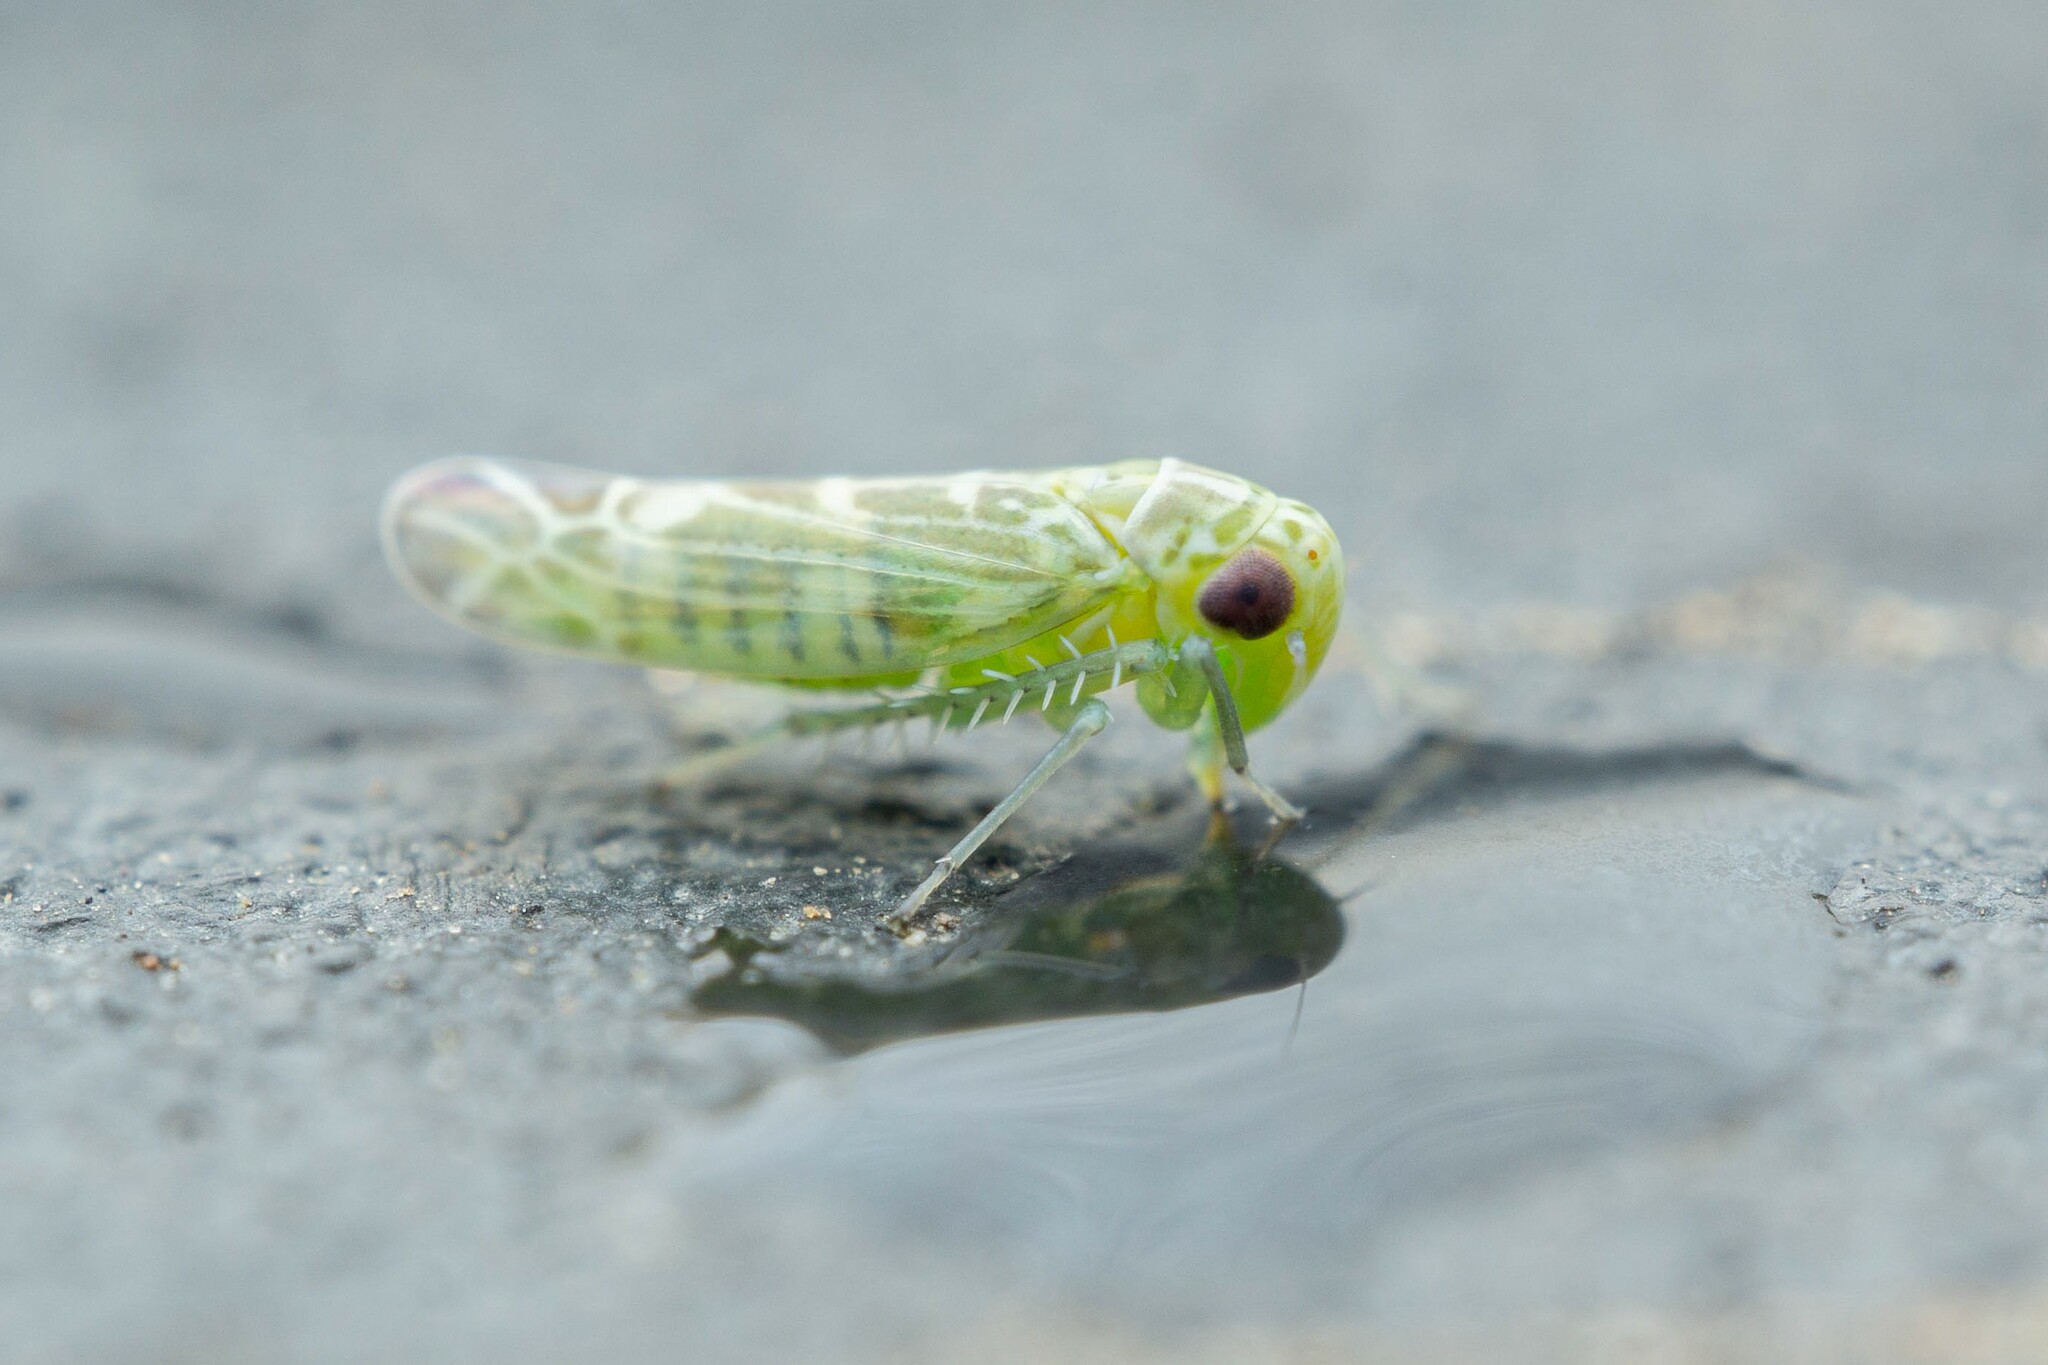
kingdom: Animalia
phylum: Arthropoda
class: Insecta
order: Hemiptera
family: Cicadellidae
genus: Hebata
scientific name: Hebata
